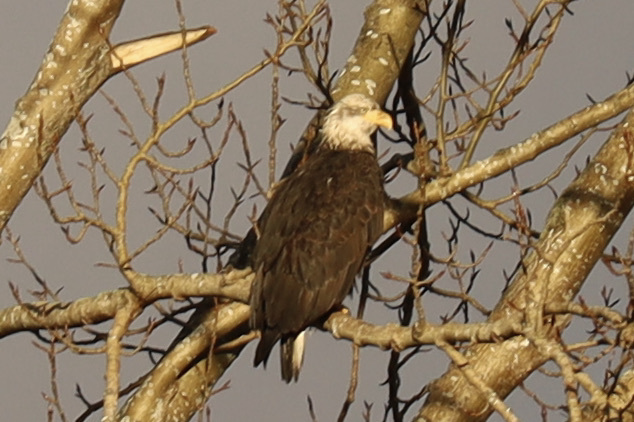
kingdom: Animalia
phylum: Chordata
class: Aves
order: Accipitriformes
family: Accipitridae
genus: Haliaeetus
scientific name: Haliaeetus leucocephalus
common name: Bald eagle
